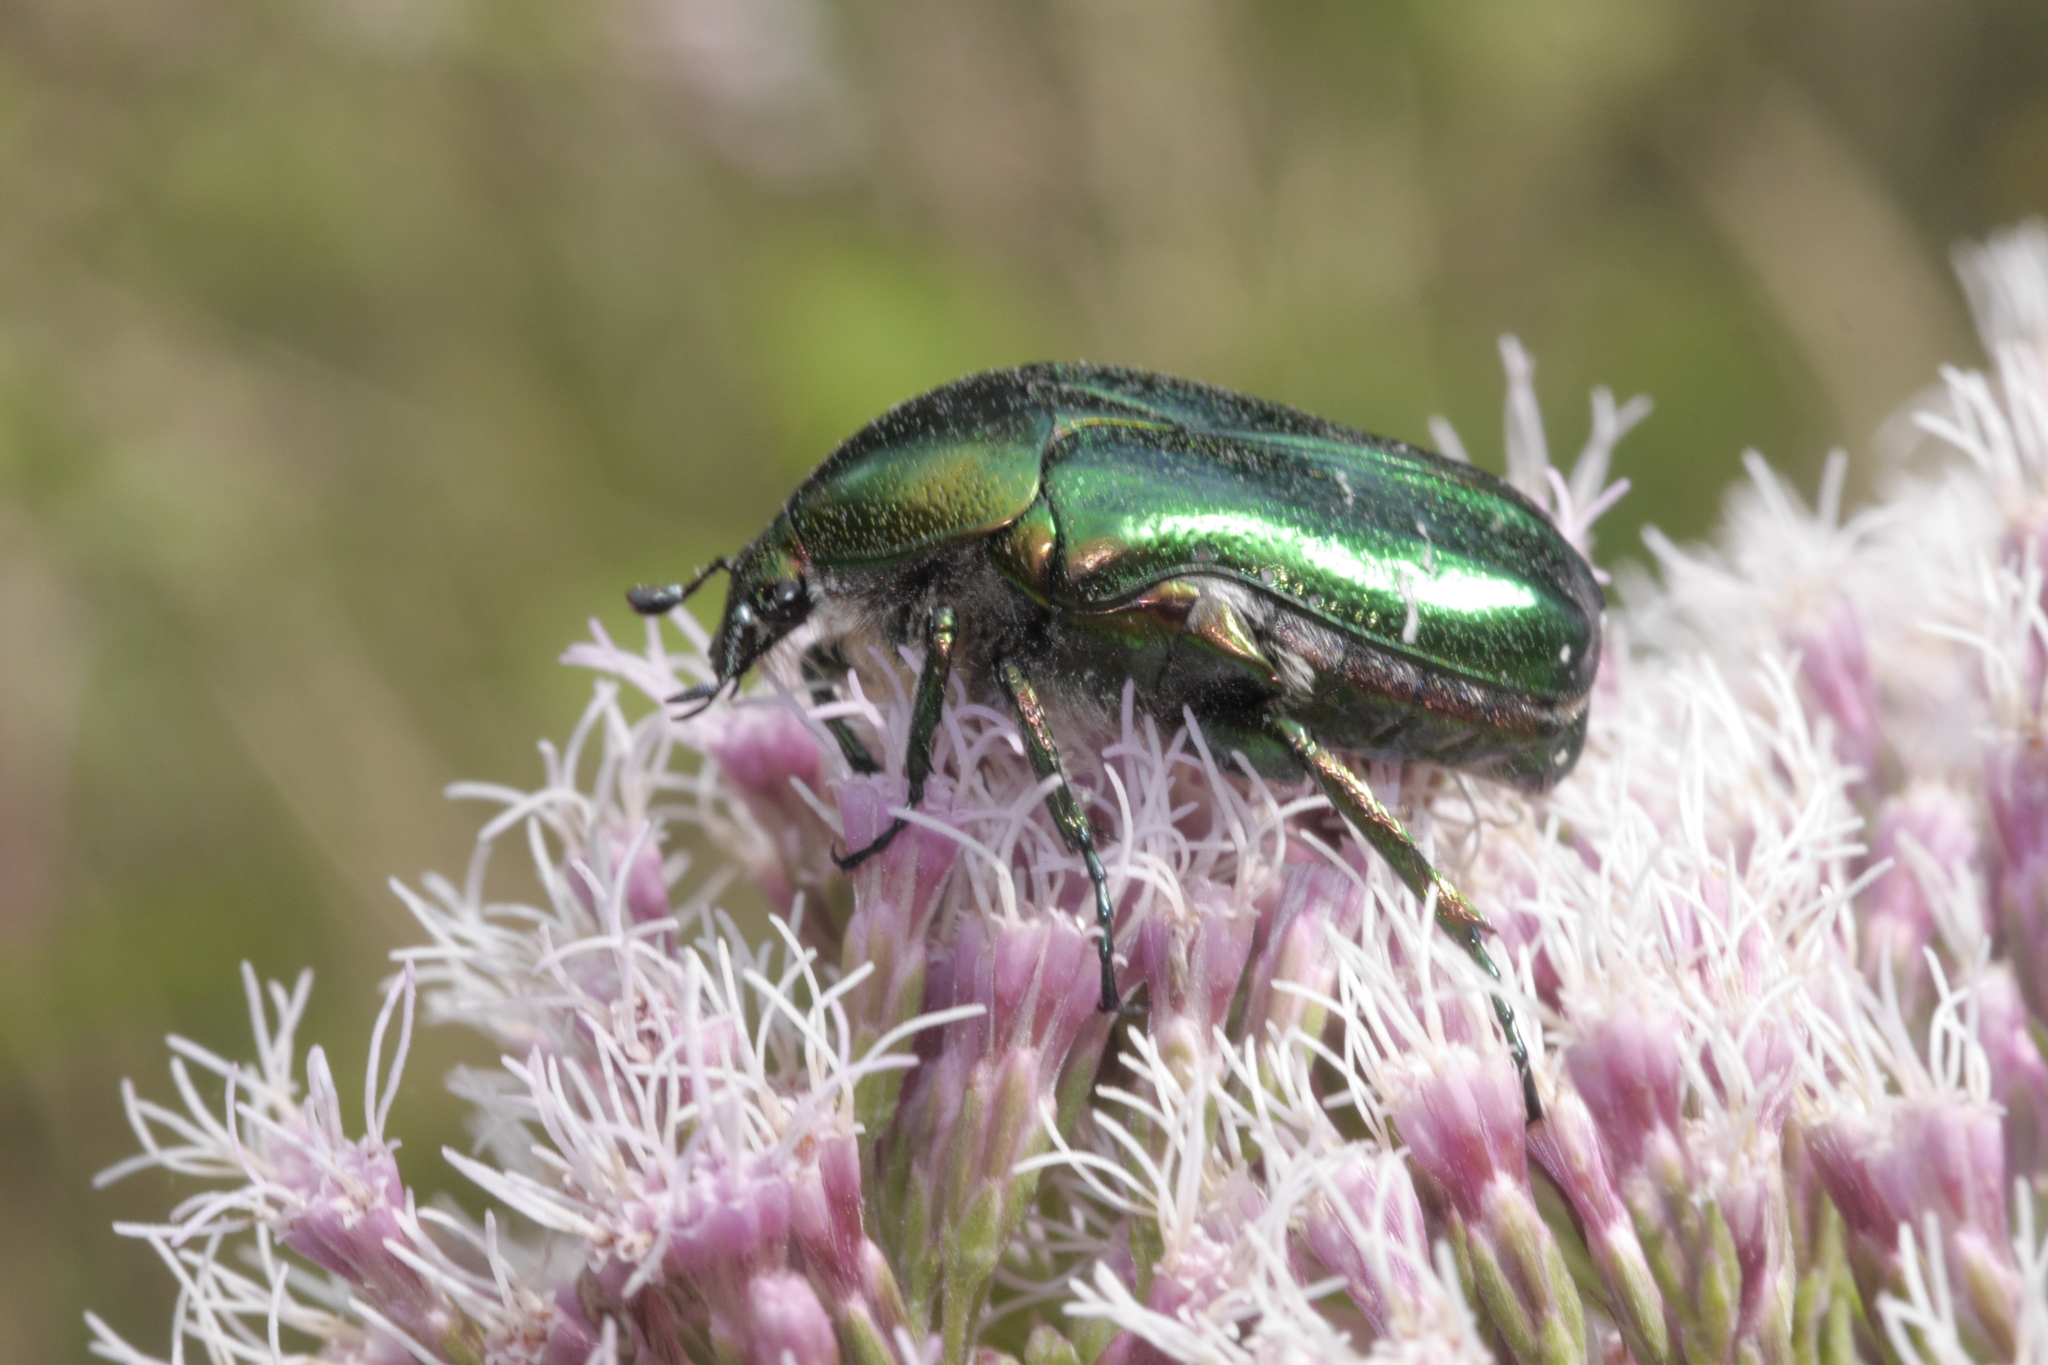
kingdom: Animalia
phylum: Arthropoda
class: Insecta
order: Coleoptera
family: Scarabaeidae
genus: Cetonia
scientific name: Cetonia aurata
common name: Rose chafer
